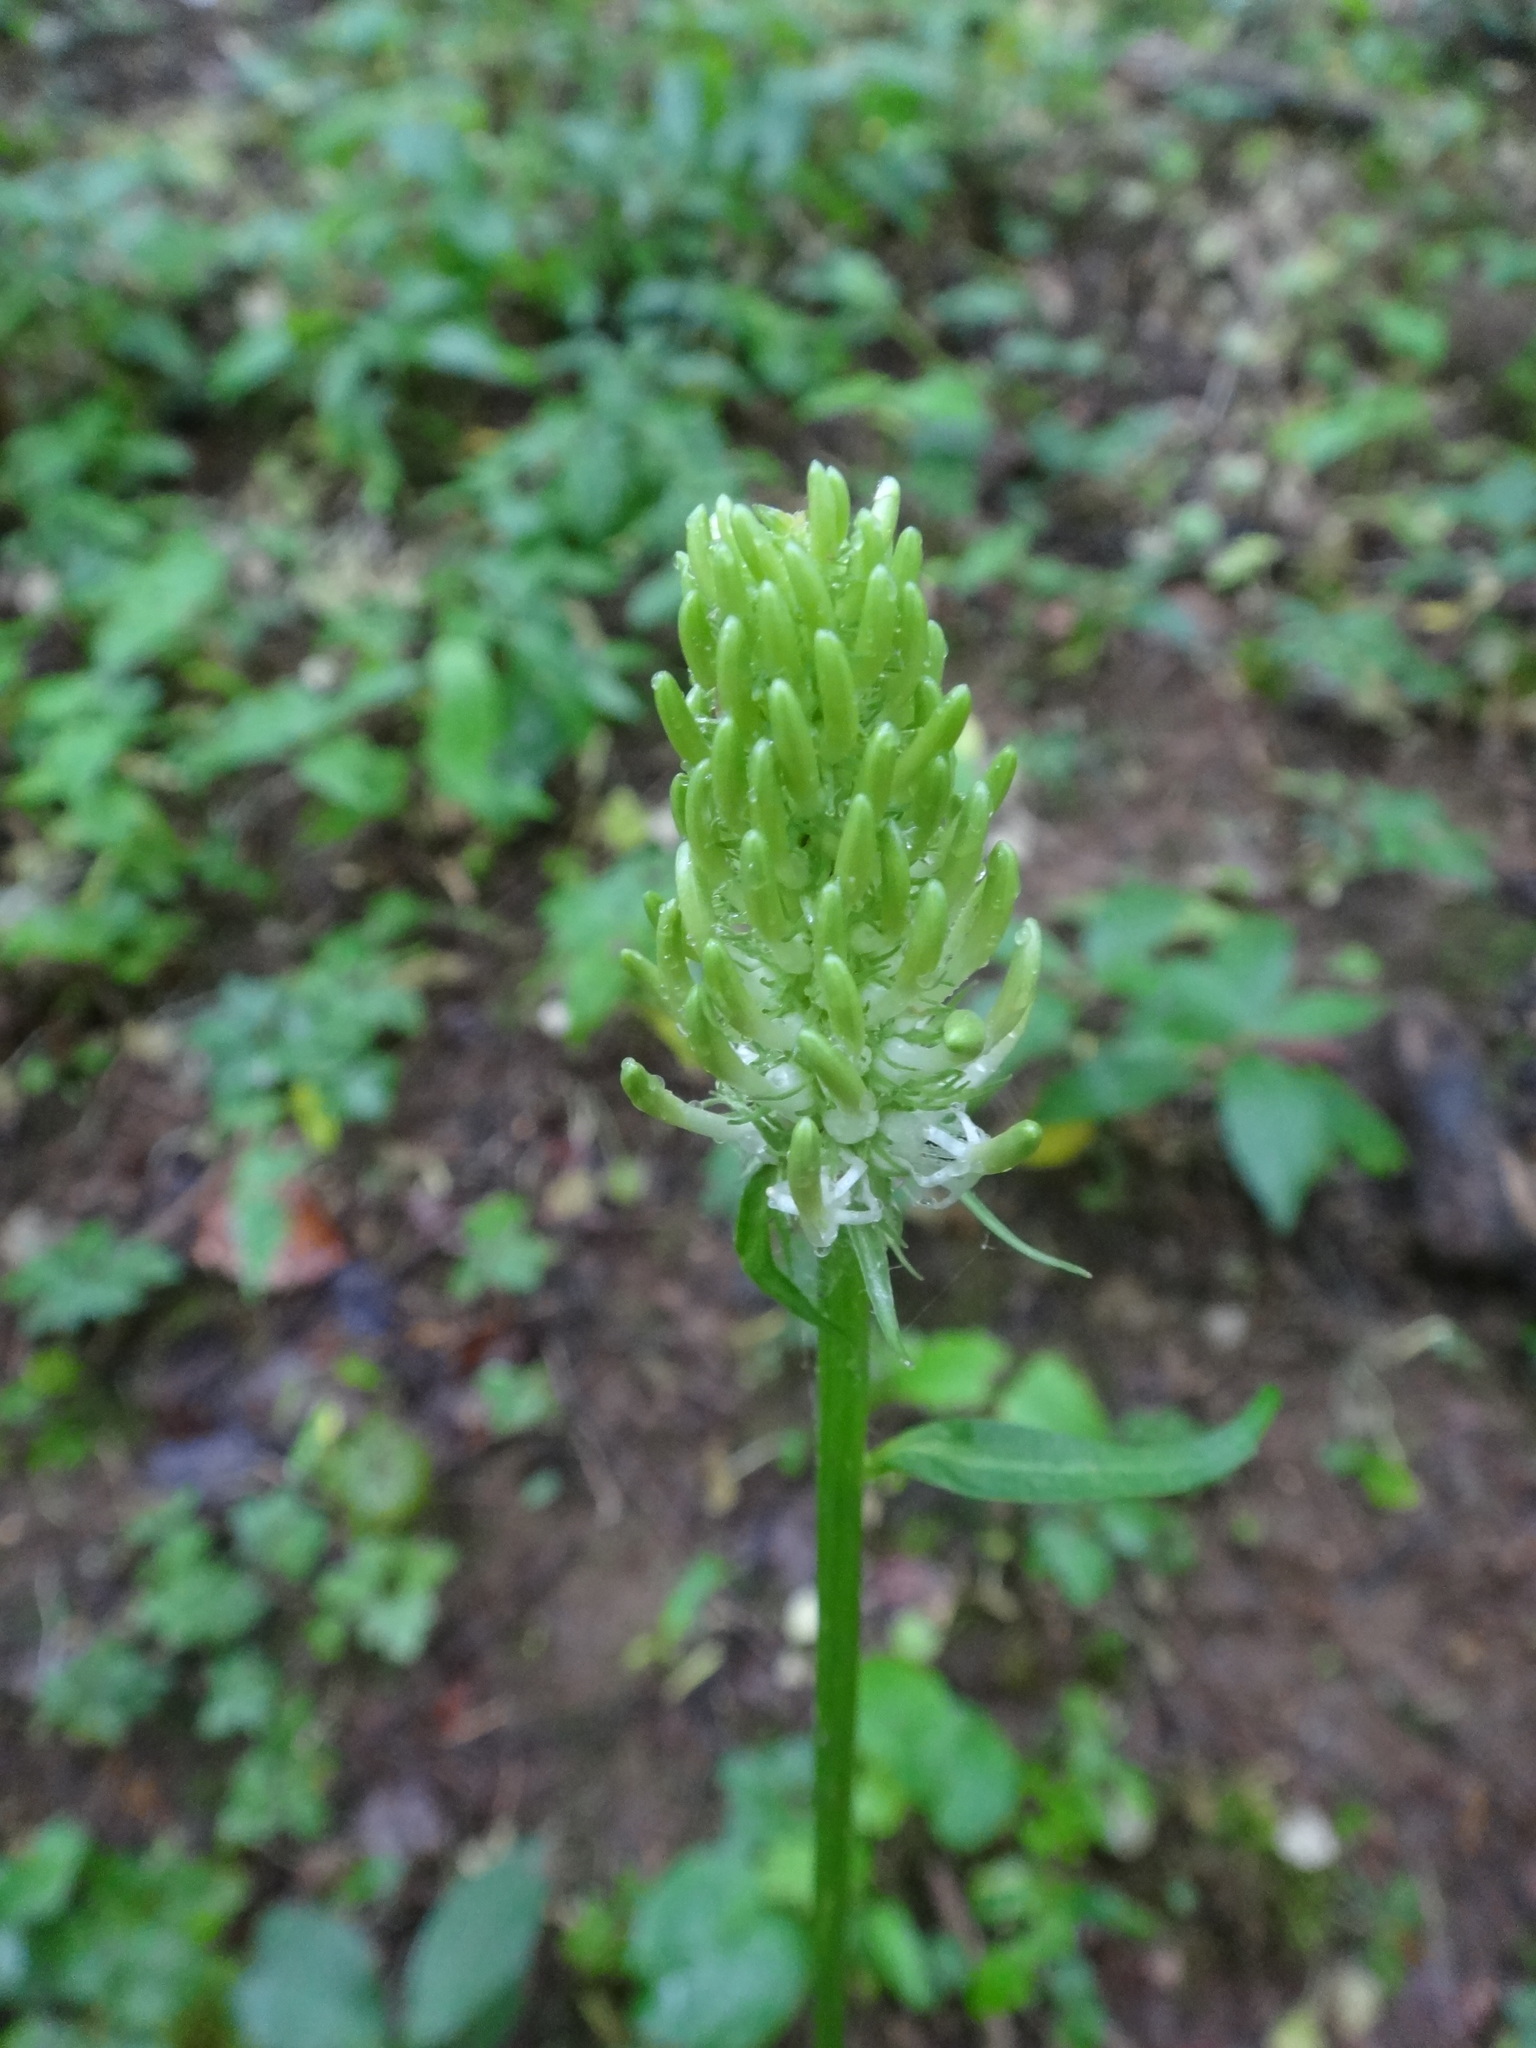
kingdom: Plantae
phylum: Tracheophyta
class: Magnoliopsida
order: Asterales
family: Campanulaceae
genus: Phyteuma
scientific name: Phyteuma spicatum
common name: Spiked rampion
